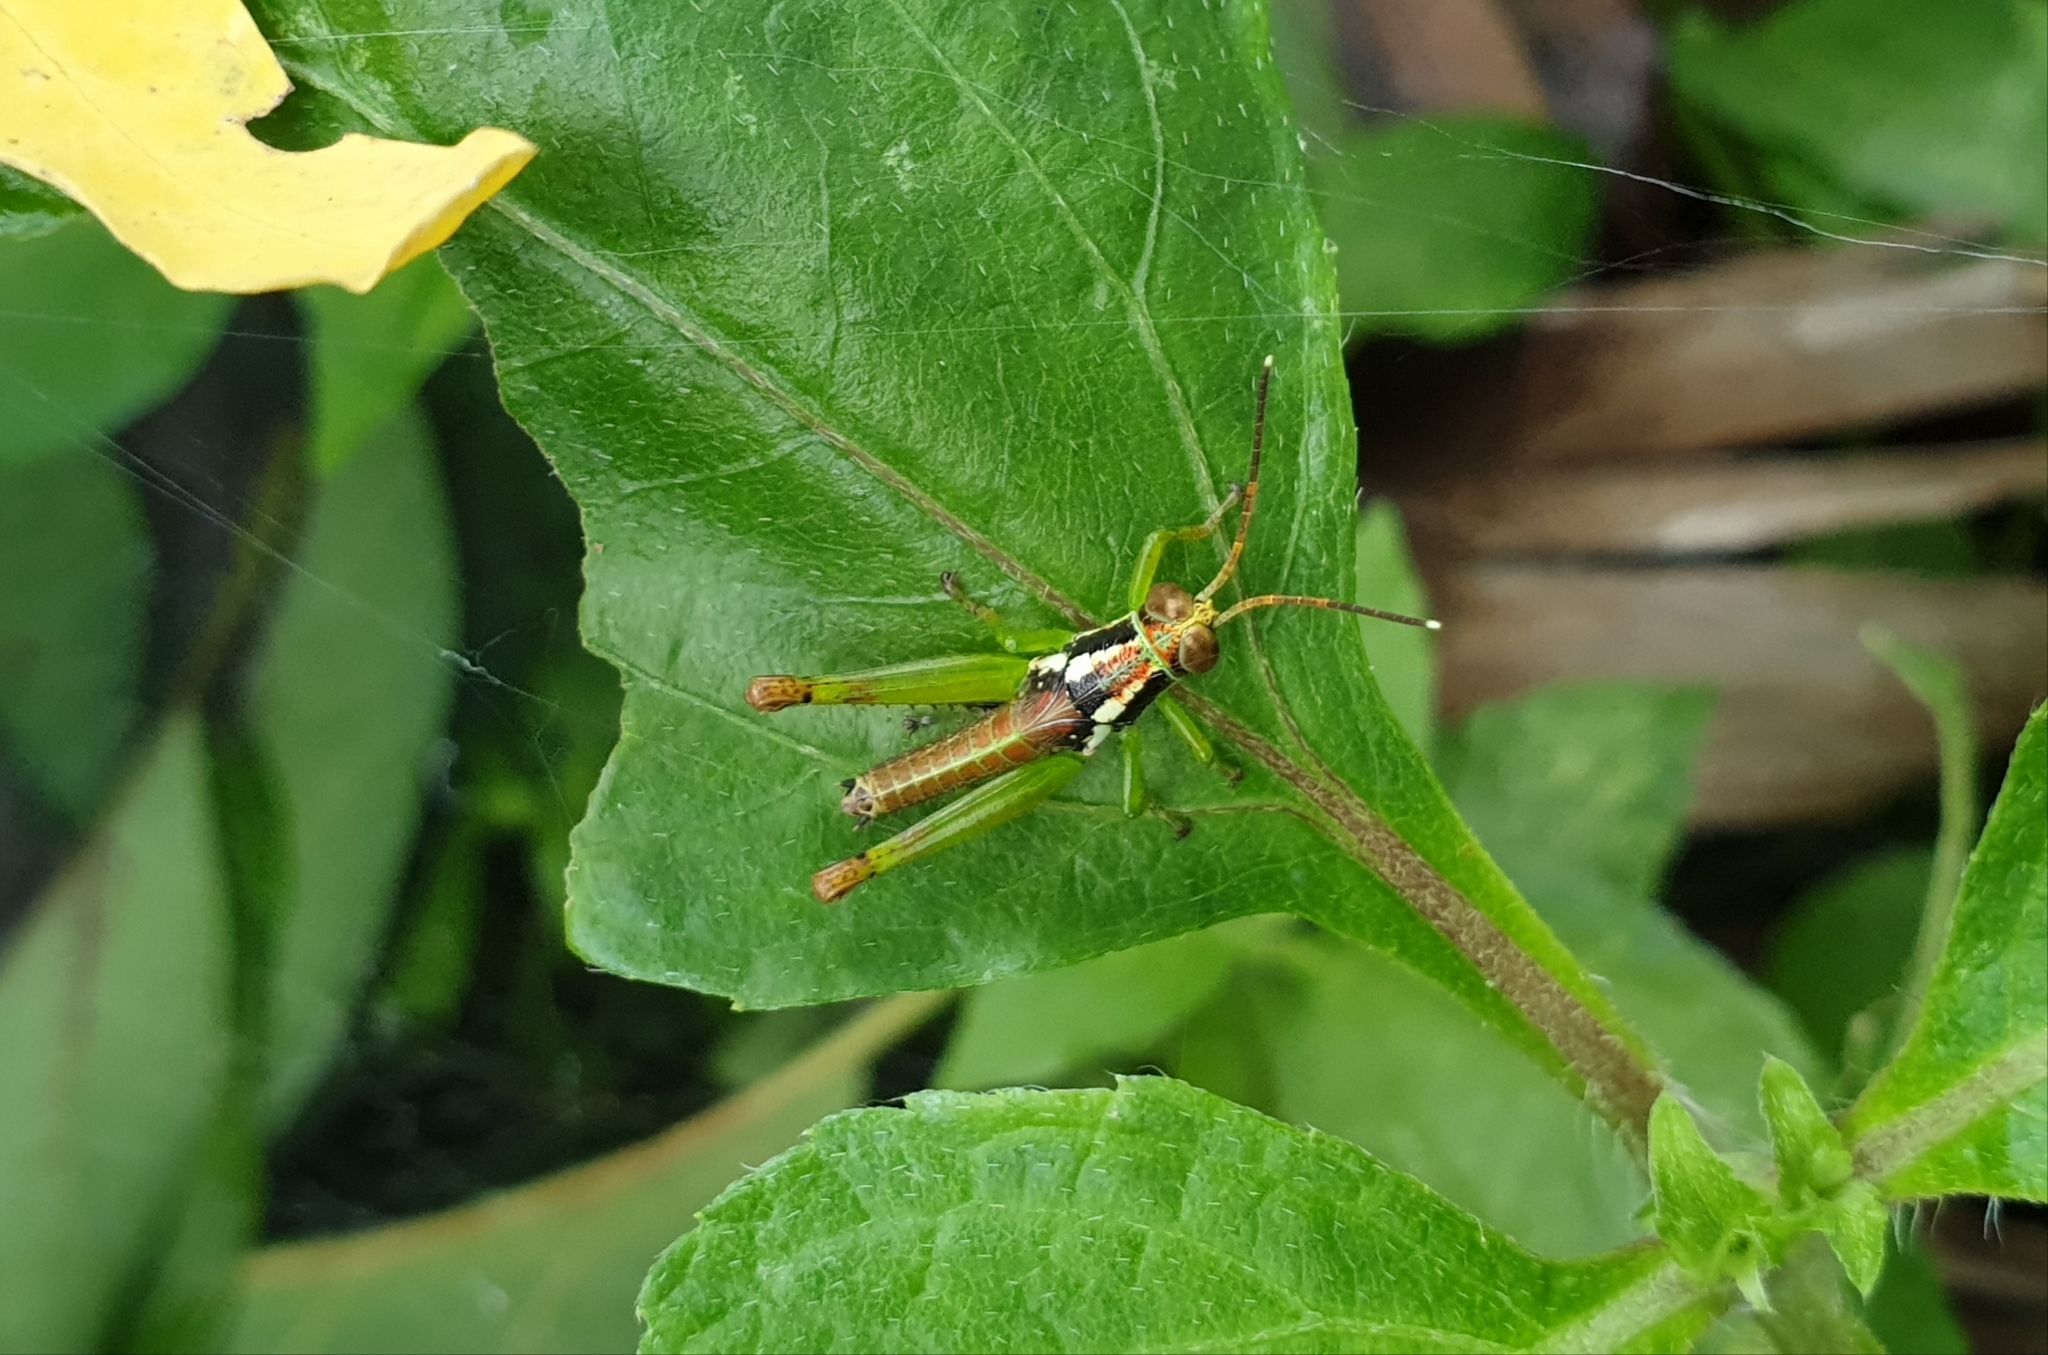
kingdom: Animalia
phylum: Arthropoda
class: Insecta
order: Orthoptera
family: Acrididae
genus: Pirithoicus
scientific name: Pirithoicus ophthalmicus
